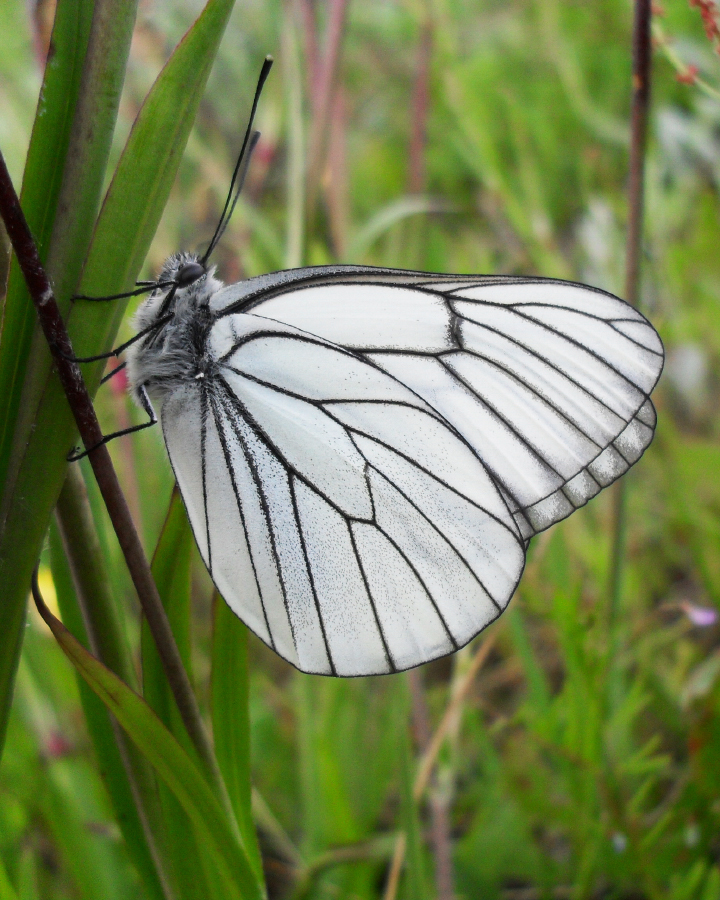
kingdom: Animalia
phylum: Arthropoda
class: Insecta
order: Lepidoptera
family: Pieridae
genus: Aporia
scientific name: Aporia crataegi
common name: Black-veined white
